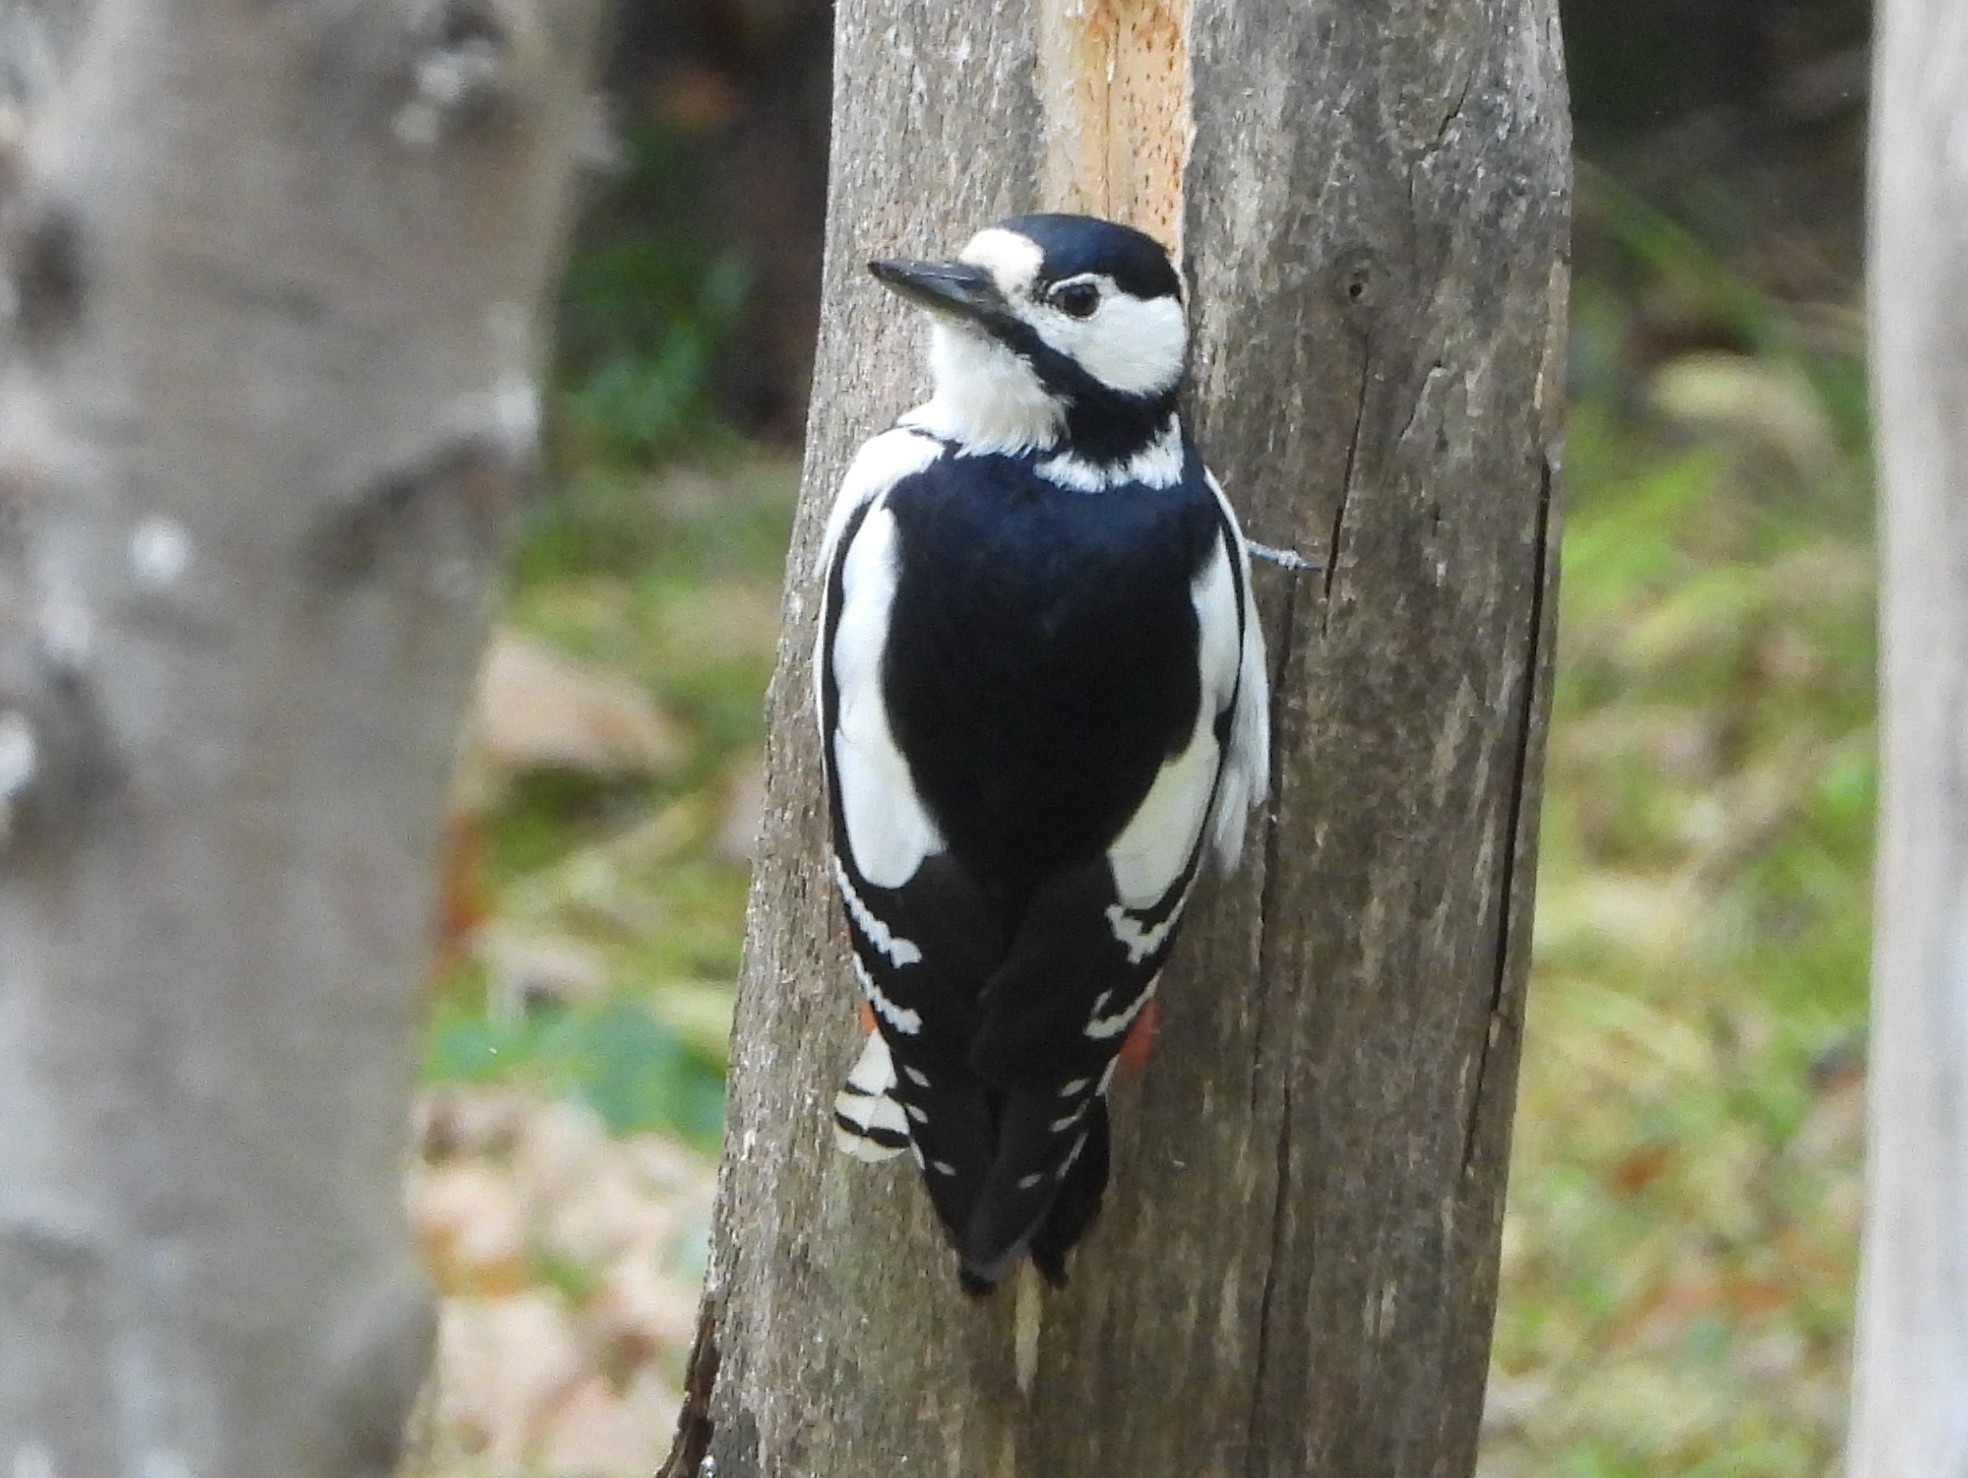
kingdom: Animalia
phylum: Chordata
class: Aves
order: Piciformes
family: Picidae
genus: Dendrocopos
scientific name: Dendrocopos major
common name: Great spotted woodpecker
